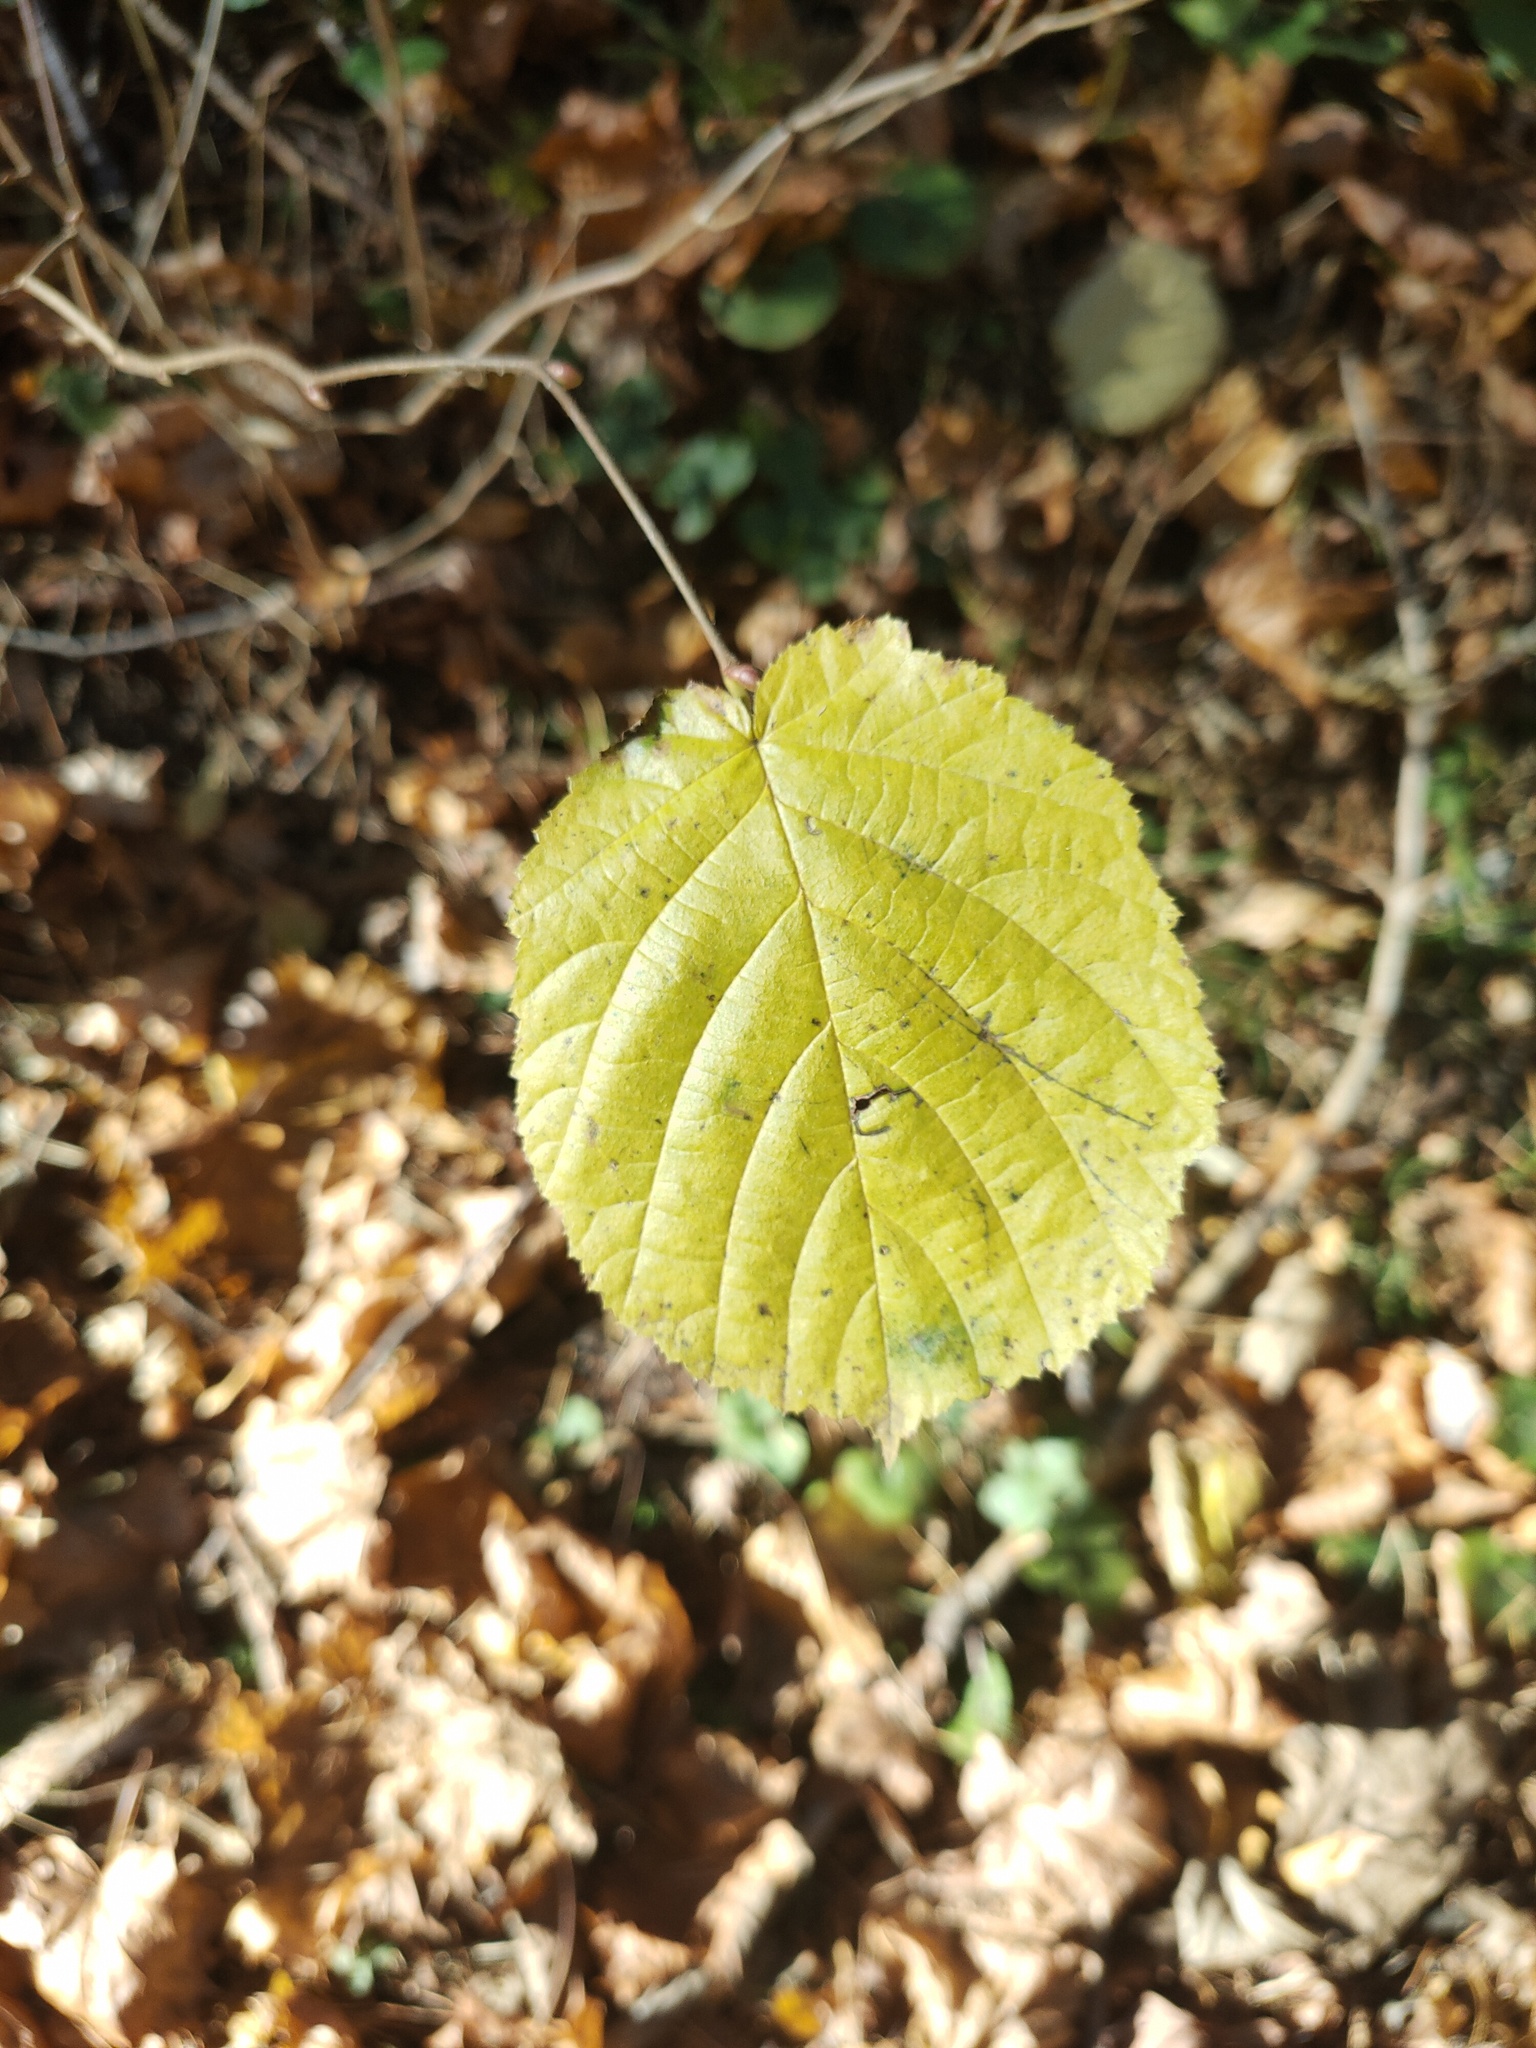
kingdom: Plantae
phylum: Tracheophyta
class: Magnoliopsida
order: Fagales
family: Betulaceae
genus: Corylus
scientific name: Corylus avellana
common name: European hazel
